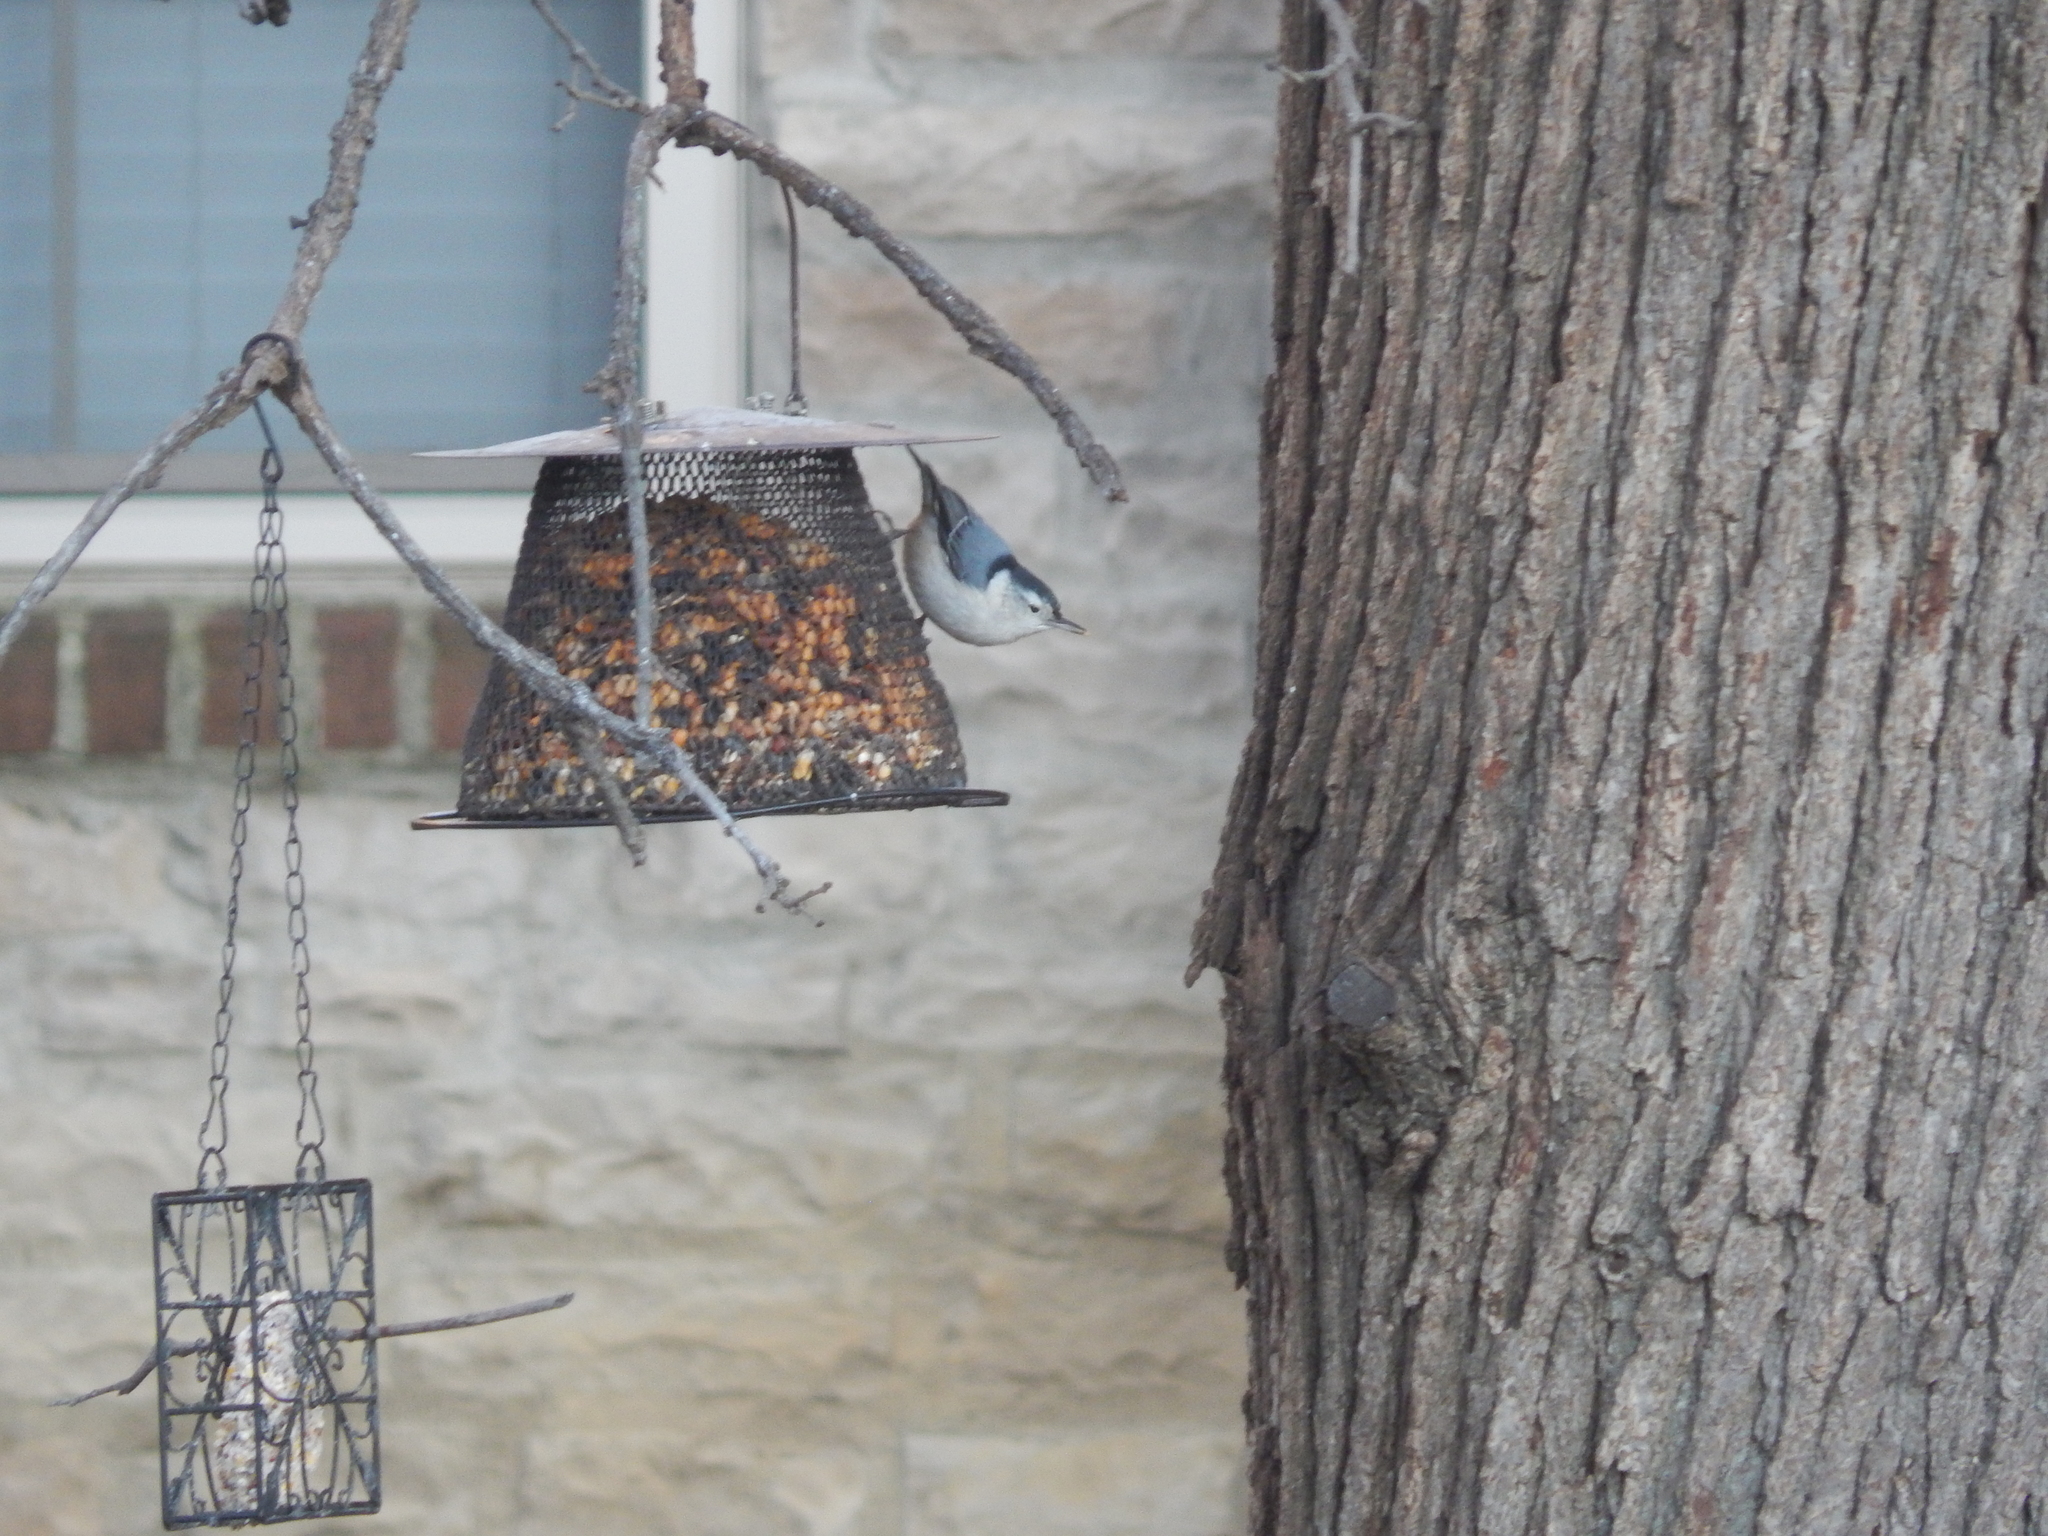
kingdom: Animalia
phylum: Chordata
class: Aves
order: Passeriformes
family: Sittidae
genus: Sitta
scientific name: Sitta carolinensis
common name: White-breasted nuthatch
